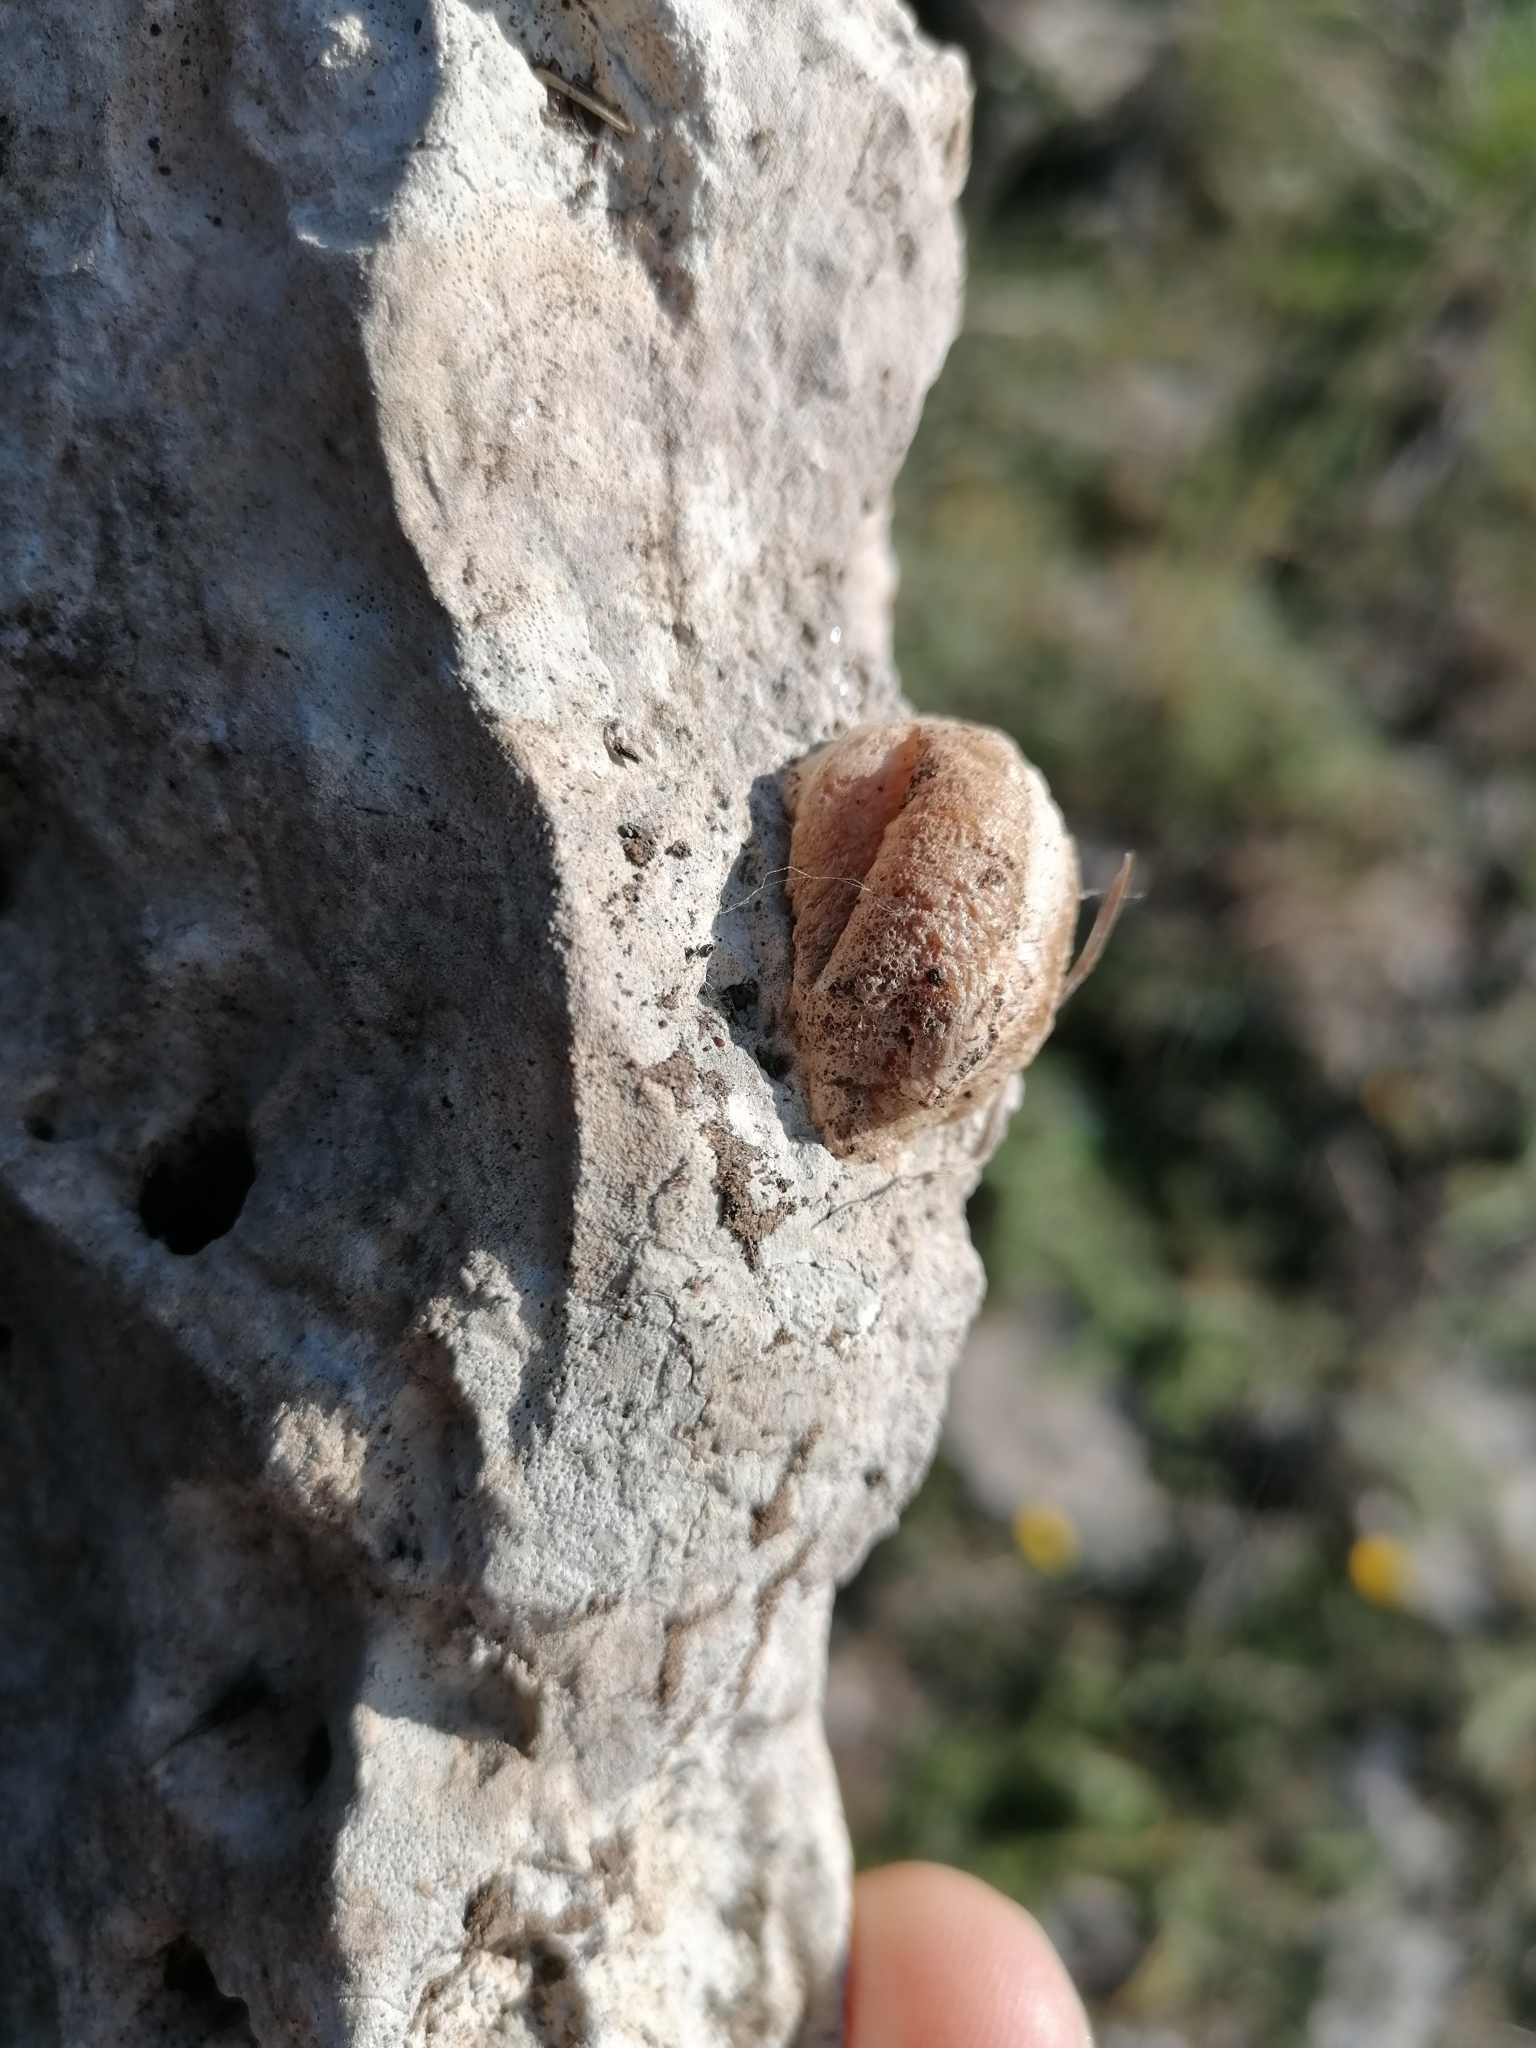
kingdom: Animalia
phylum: Arthropoda
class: Insecta
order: Mantodea
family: Mantidae
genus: Mantis
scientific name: Mantis religiosa
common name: Praying mantis
